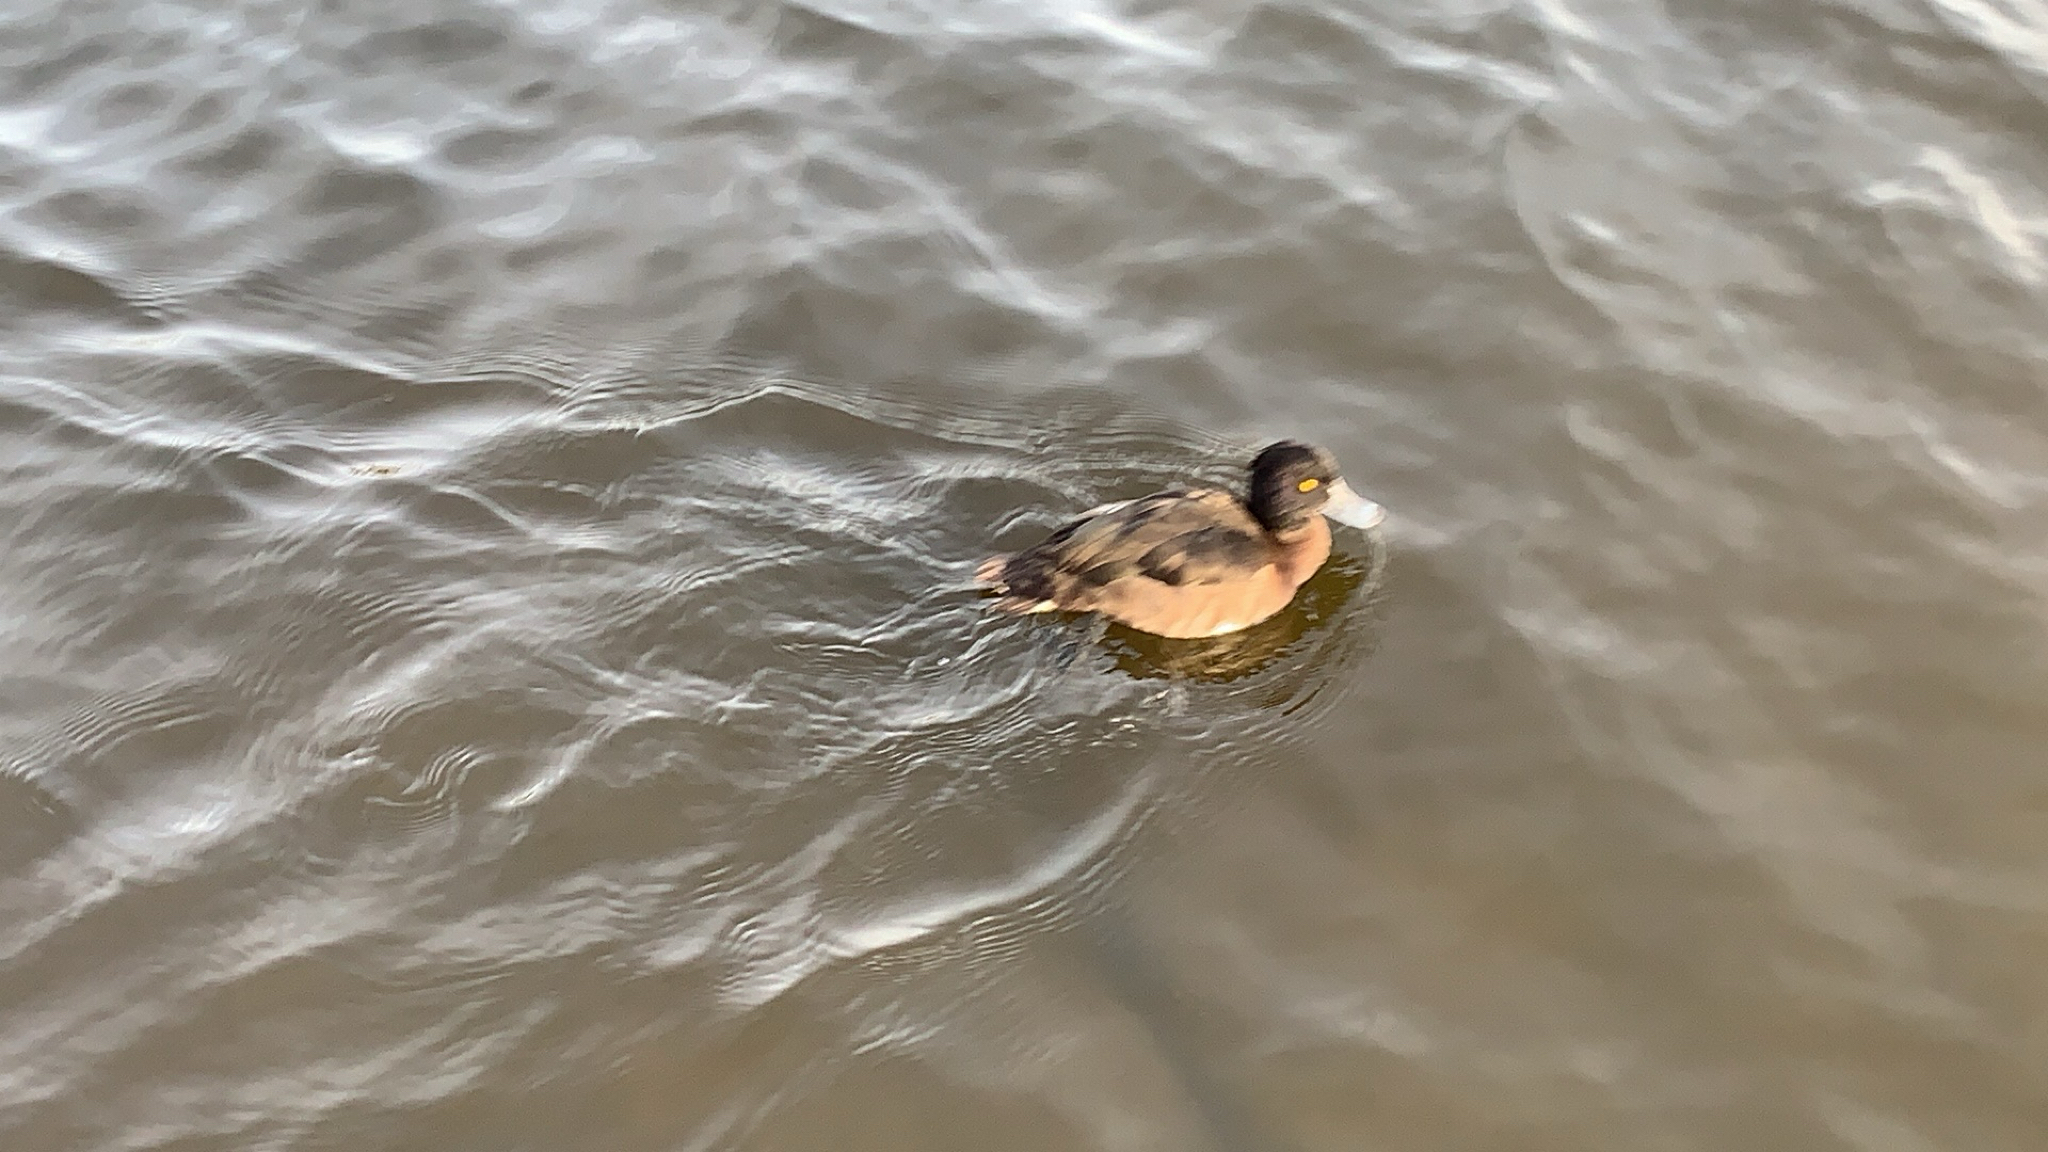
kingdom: Animalia
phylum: Chordata
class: Aves
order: Anseriformes
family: Anatidae
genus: Aythya
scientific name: Aythya fuligula
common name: Tufted duck
